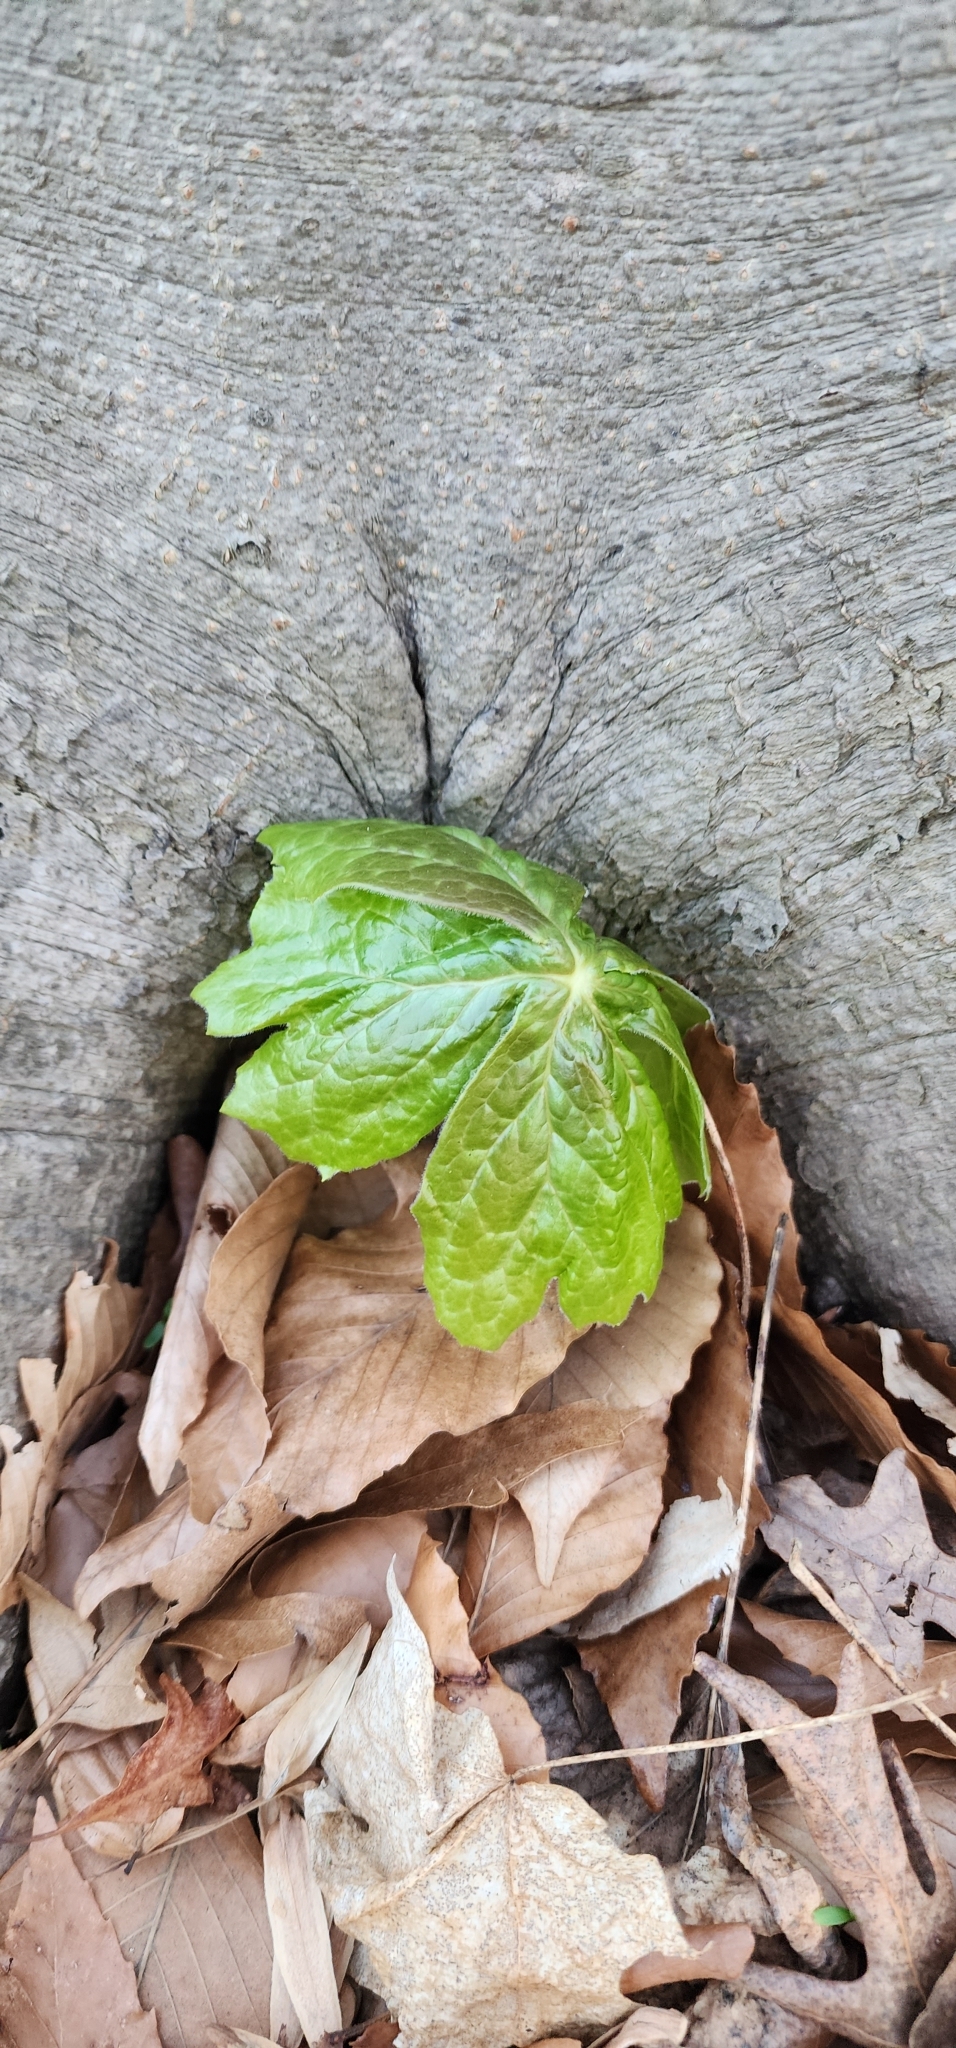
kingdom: Plantae
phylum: Tracheophyta
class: Magnoliopsida
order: Ranunculales
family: Berberidaceae
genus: Podophyllum
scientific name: Podophyllum peltatum
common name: Wild mandrake
